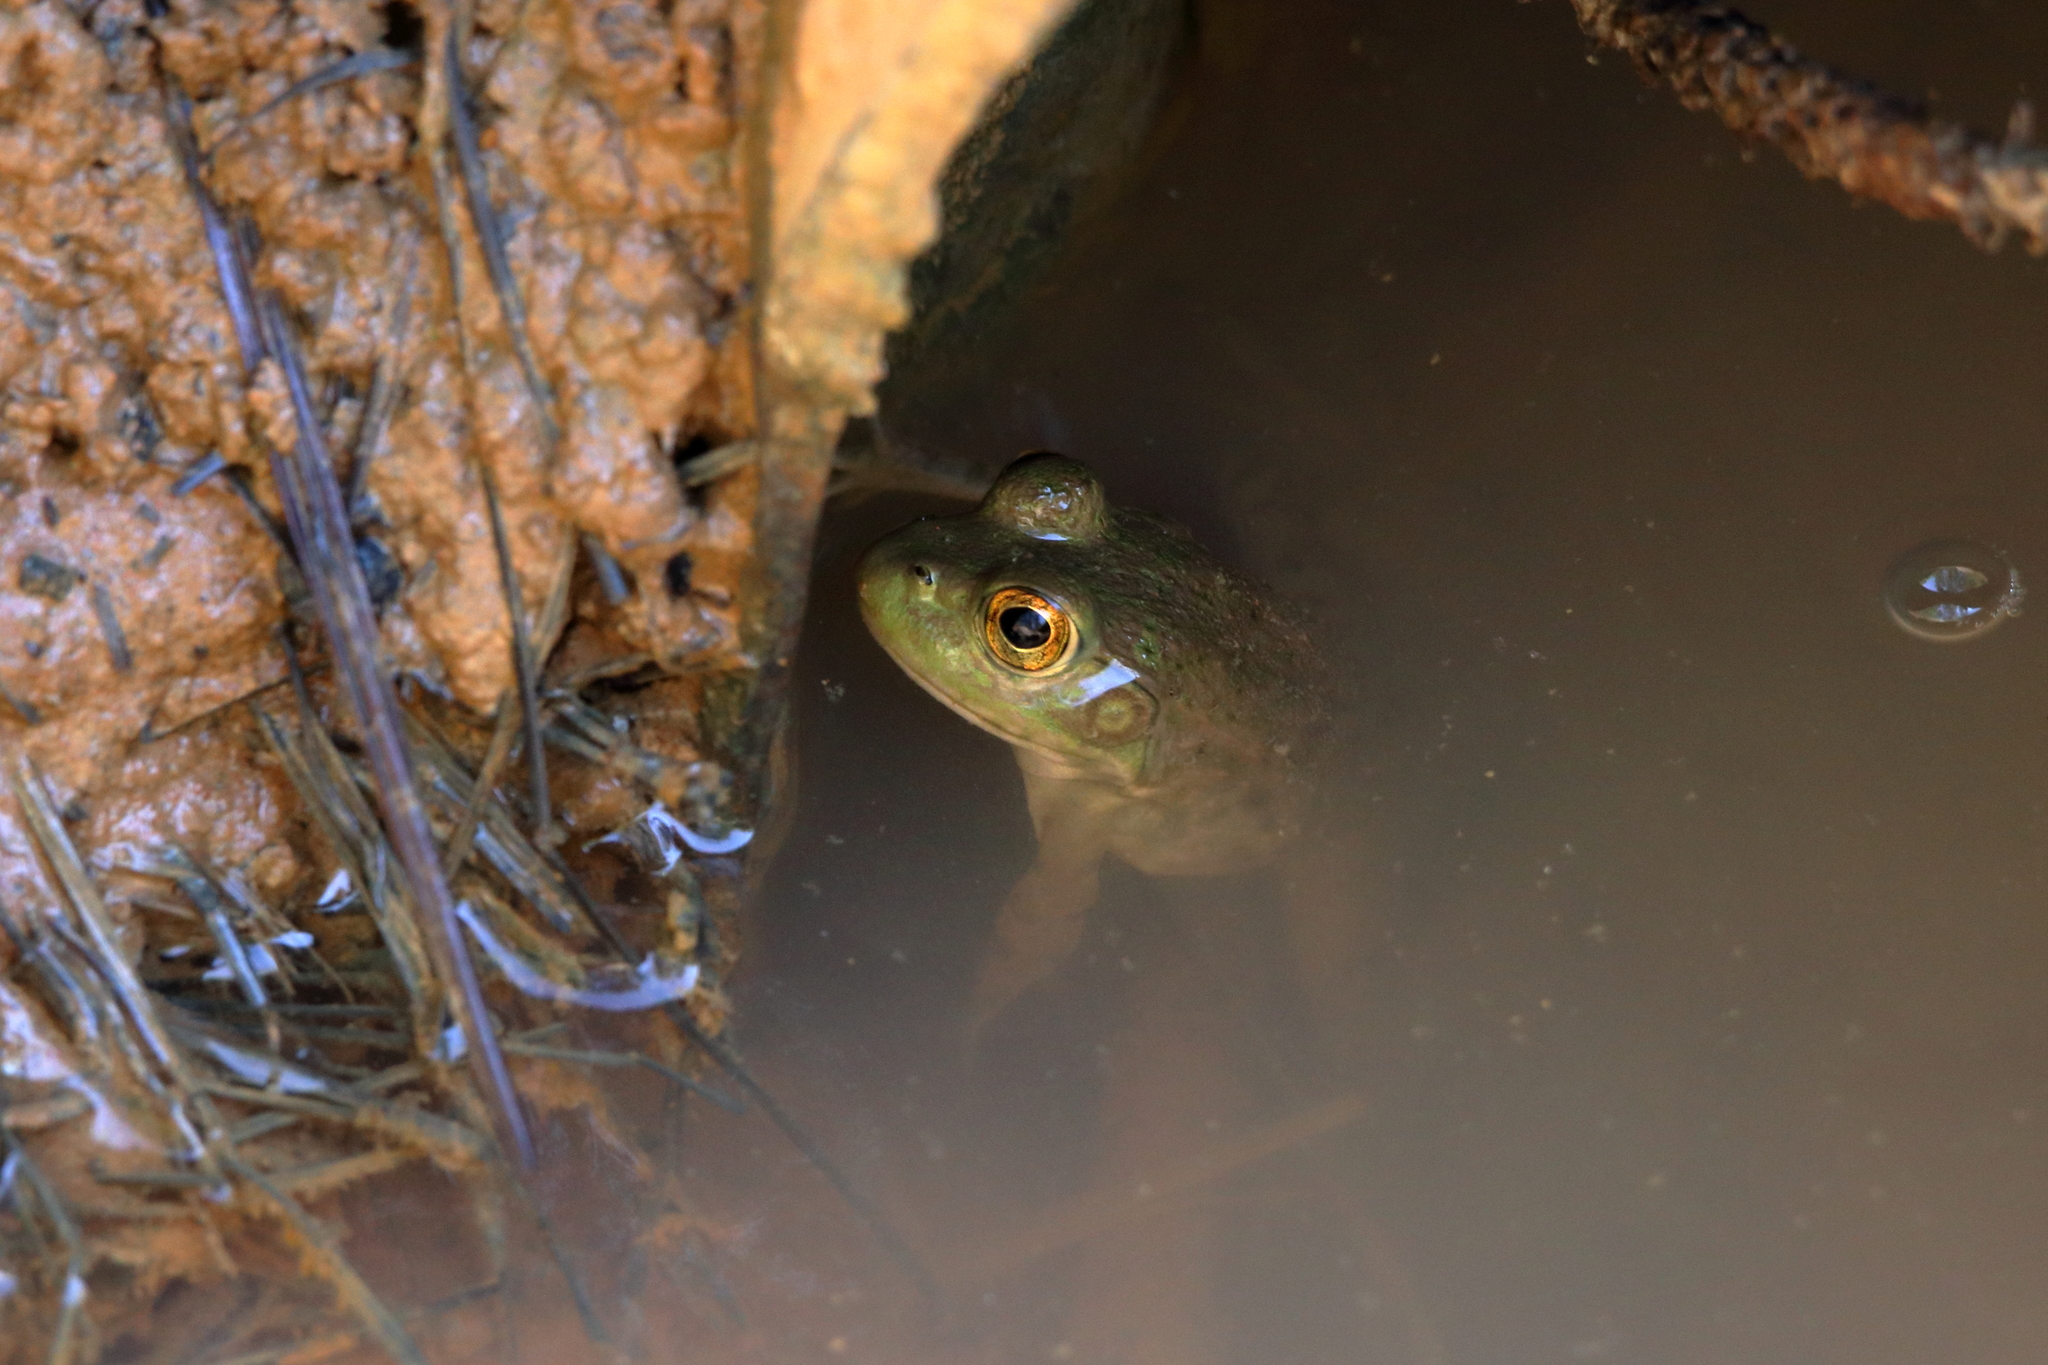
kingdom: Animalia
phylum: Chordata
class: Amphibia
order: Anura
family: Ranidae
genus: Lithobates
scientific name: Lithobates catesbeianus
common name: American bullfrog
